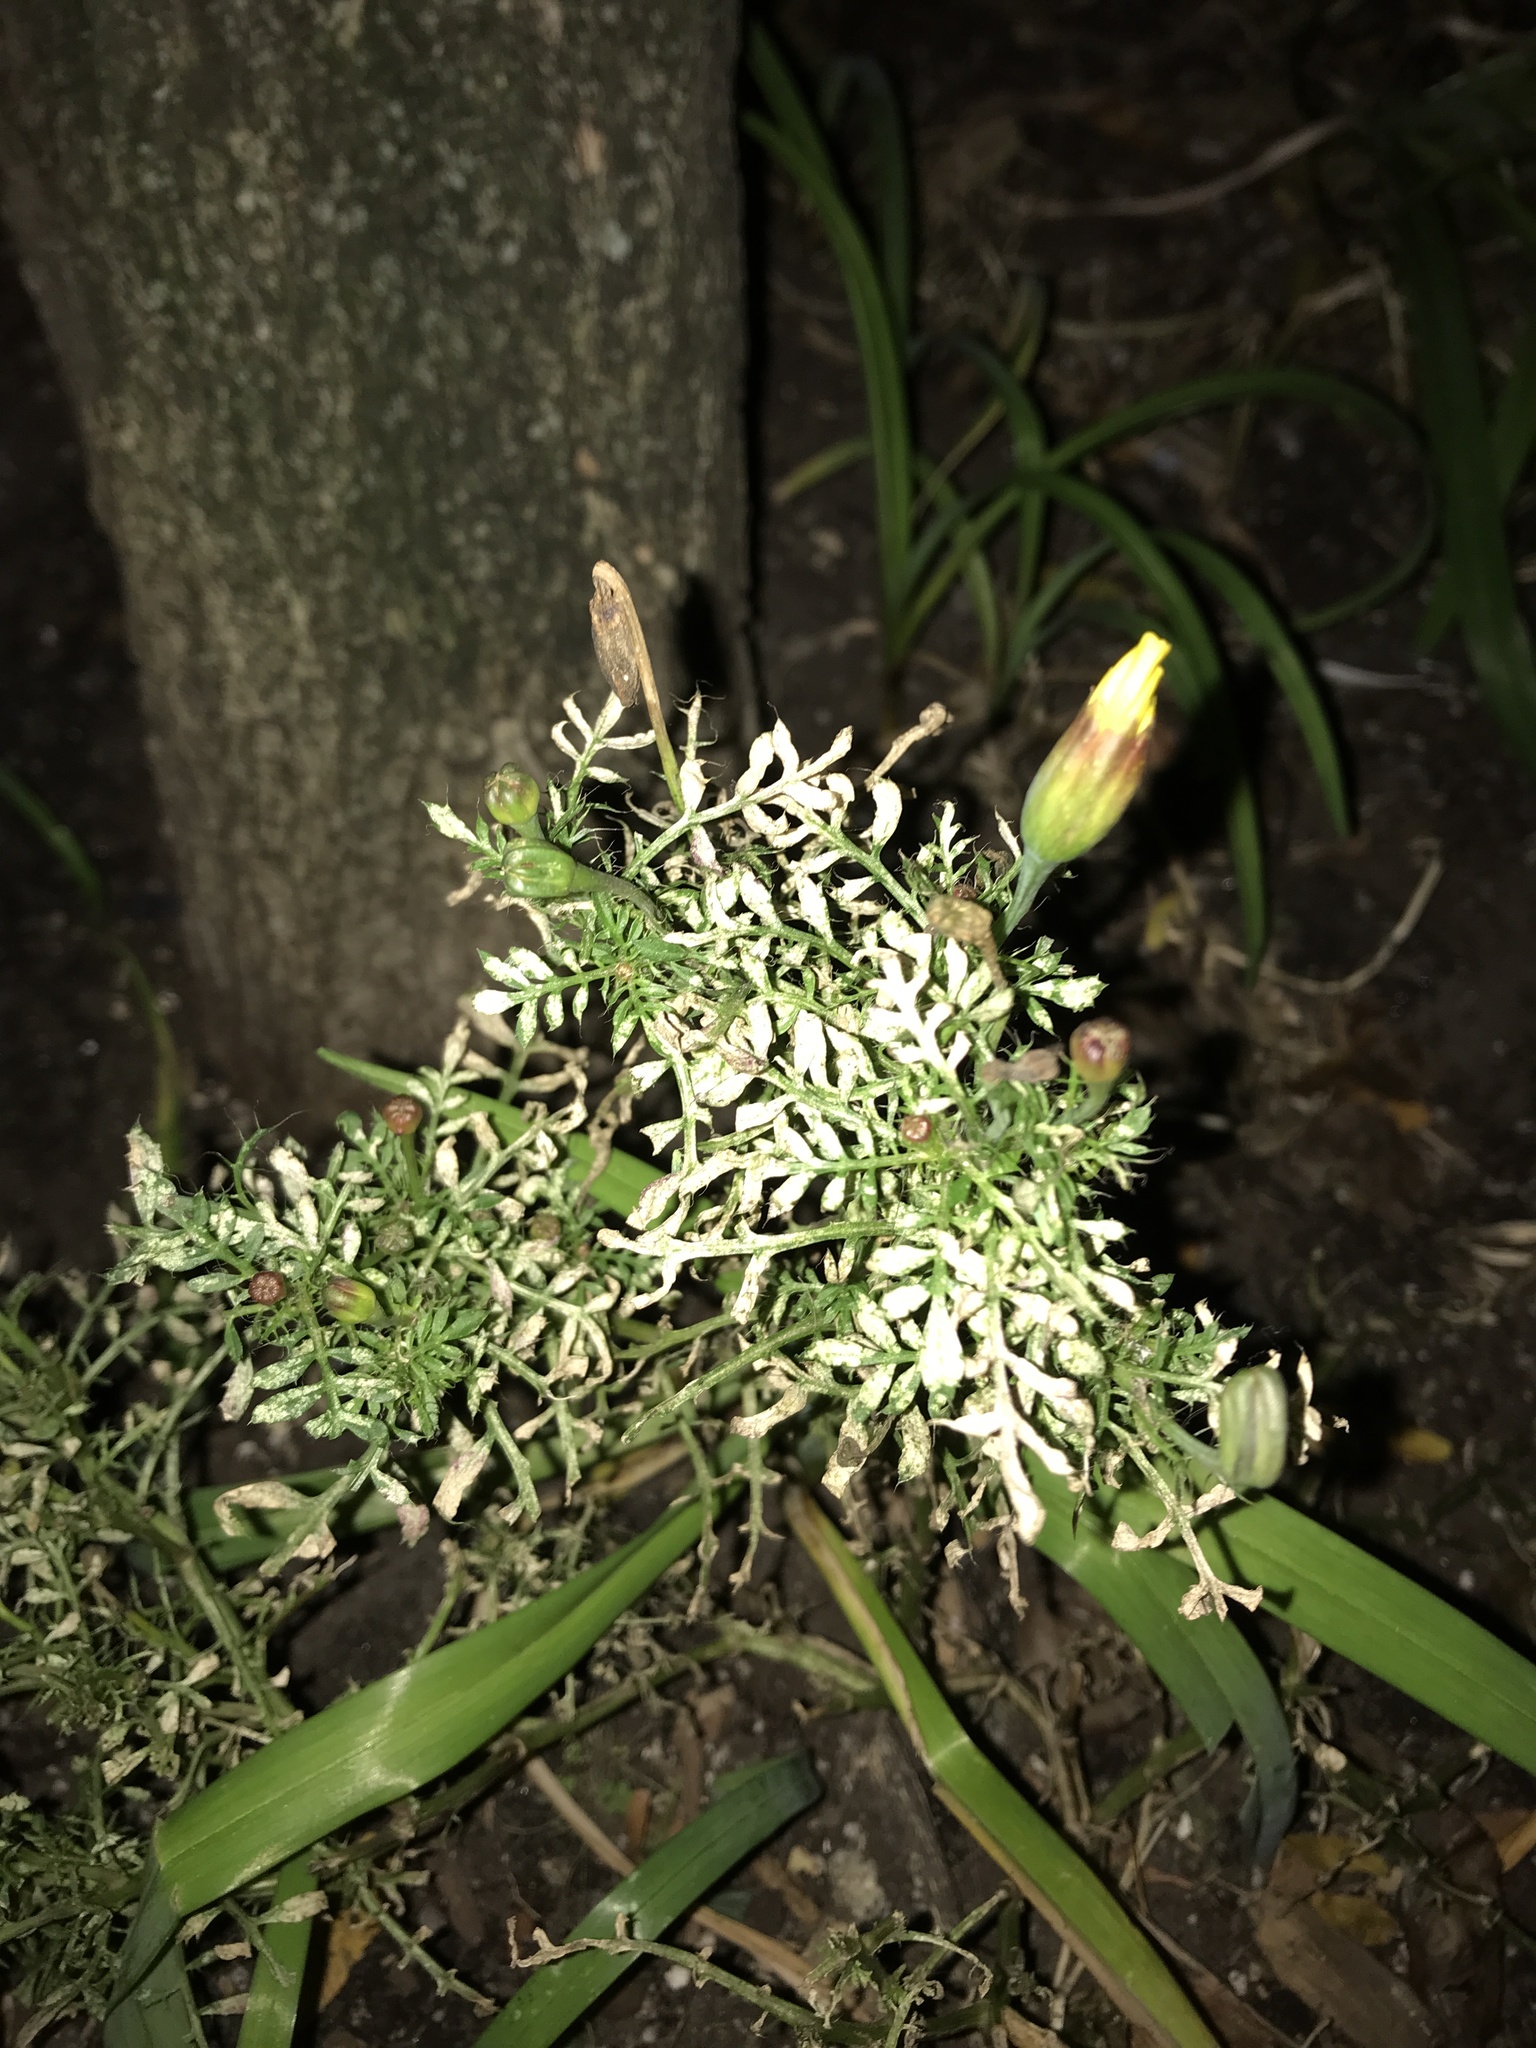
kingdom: Plantae
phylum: Tracheophyta
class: Magnoliopsida
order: Asterales
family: Asteraceae
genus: Tagetes
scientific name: Tagetes erecta
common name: African marigold
